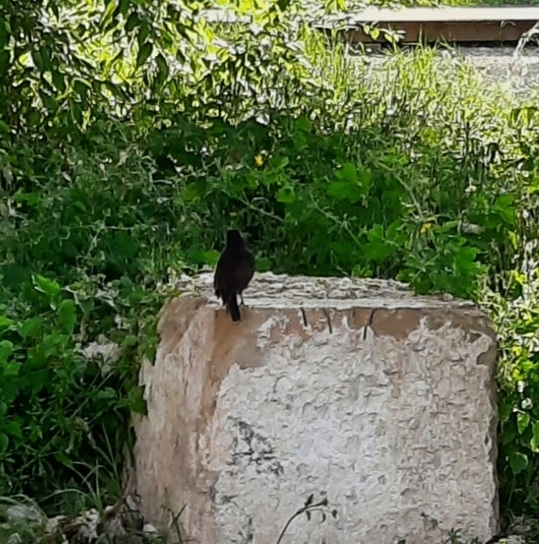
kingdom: Animalia
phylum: Chordata
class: Aves
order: Passeriformes
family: Turdidae
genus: Turdus
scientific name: Turdus merula
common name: Common blackbird
